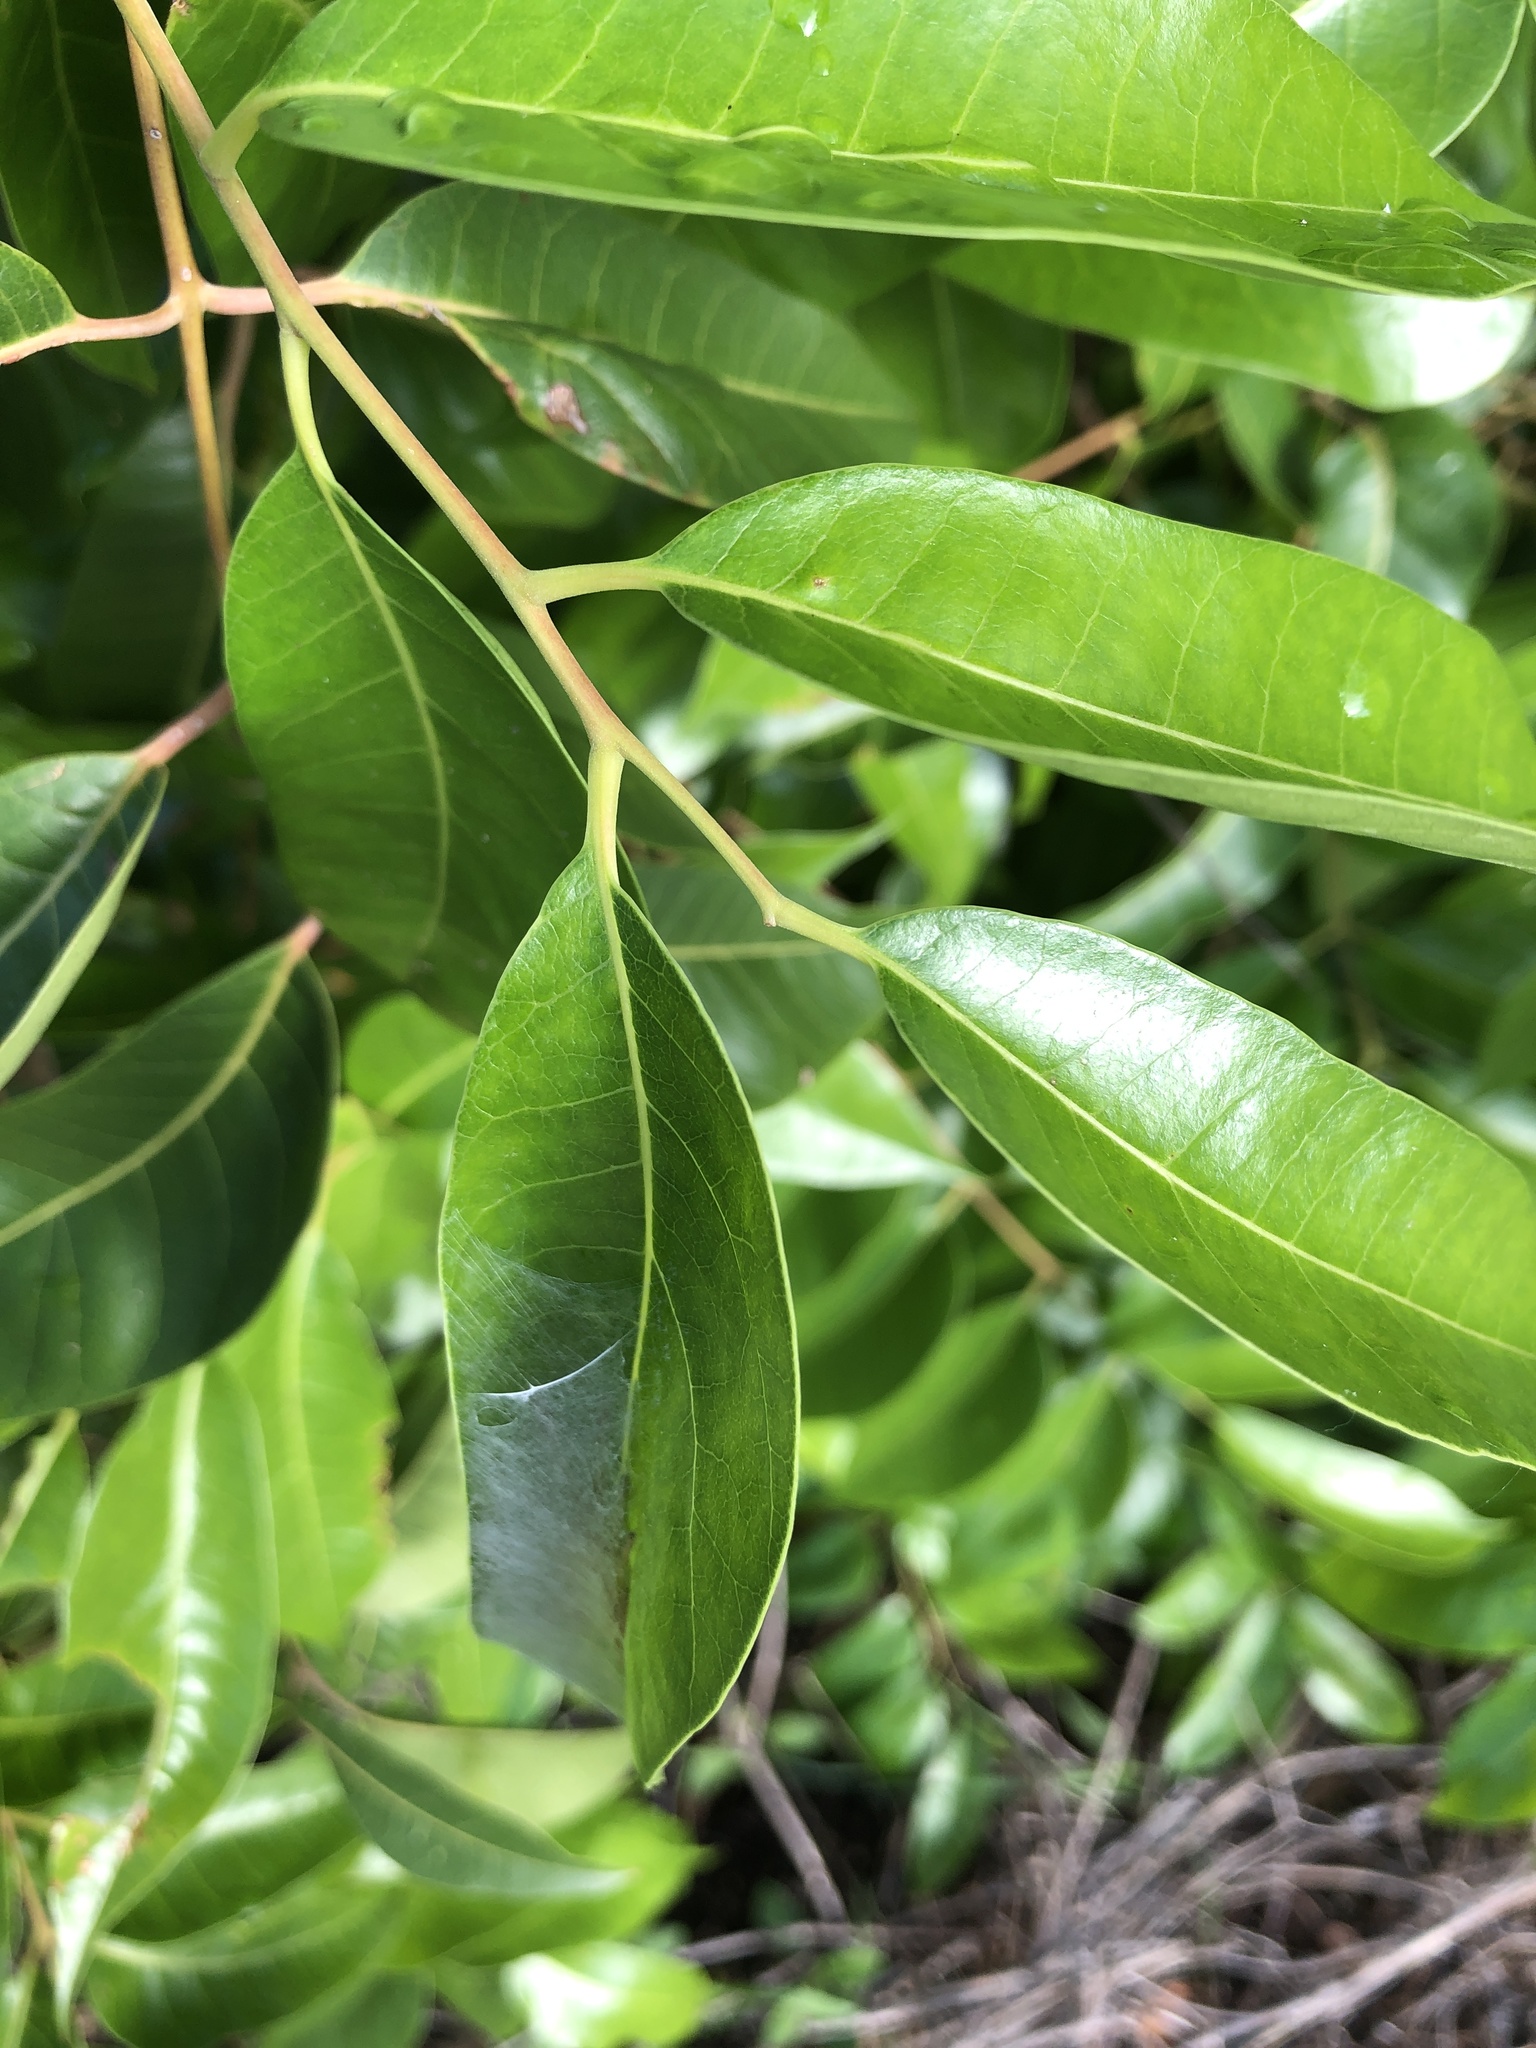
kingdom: Plantae
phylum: Tracheophyta
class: Magnoliopsida
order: Sapindales
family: Anacardiaceae
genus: Euroschinus
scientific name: Euroschinus falcatus
